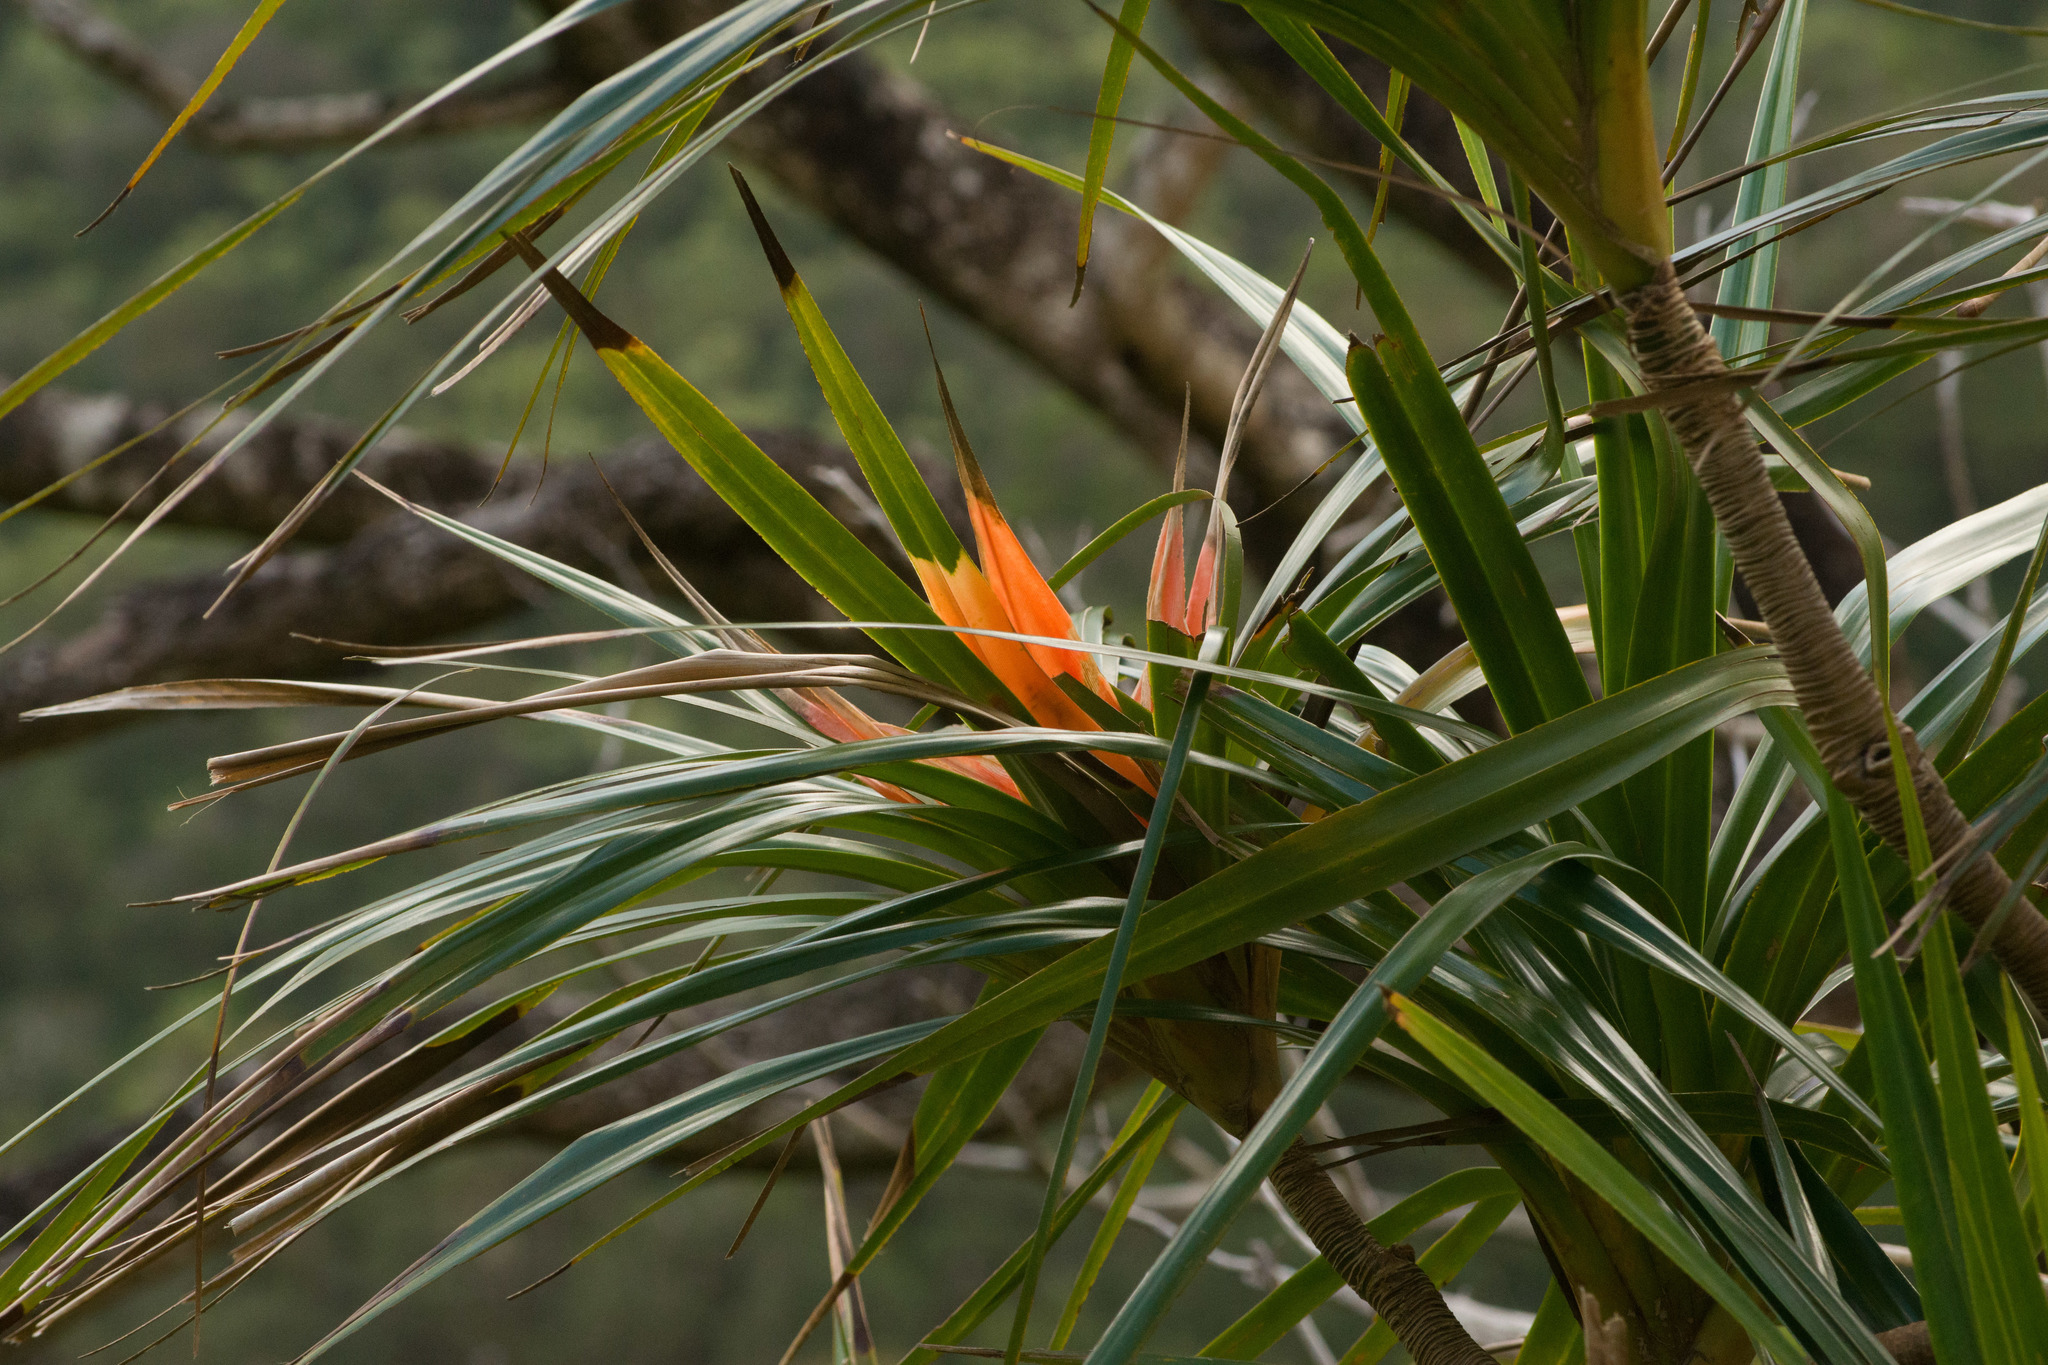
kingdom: Plantae
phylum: Tracheophyta
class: Liliopsida
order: Pandanales
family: Pandanaceae
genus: Freycinetia
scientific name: Freycinetia arborea
